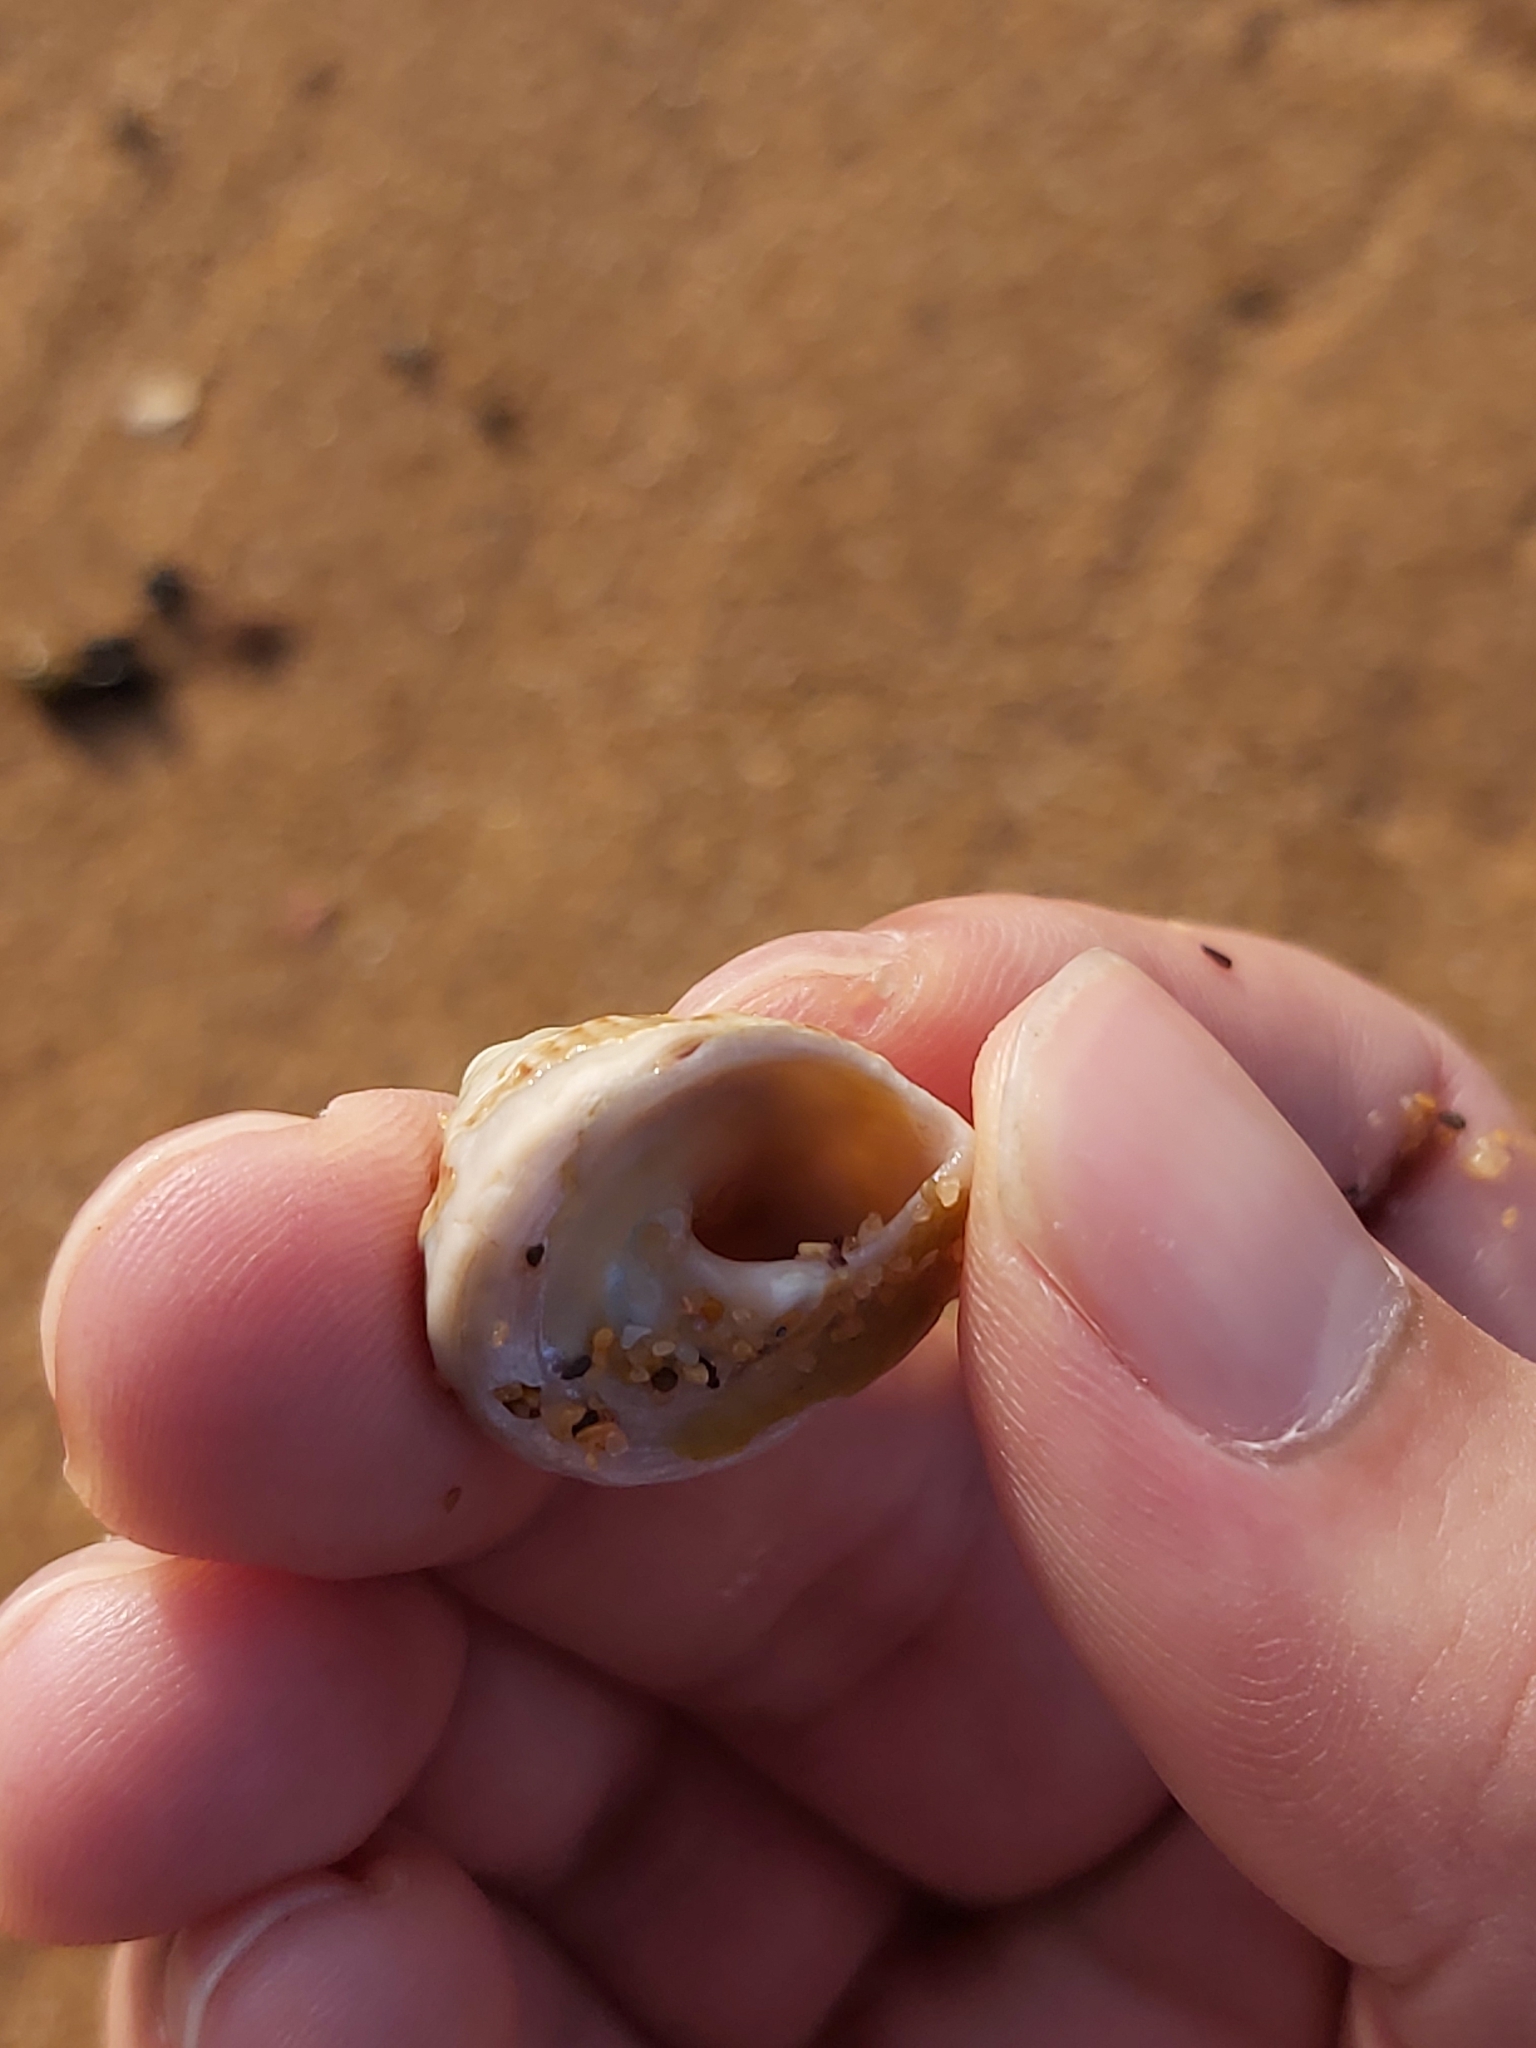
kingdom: Animalia
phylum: Mollusca
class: Gastropoda
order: Trochida
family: Turbinidae
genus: Astralium
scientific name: Astralium tentoriiforme
